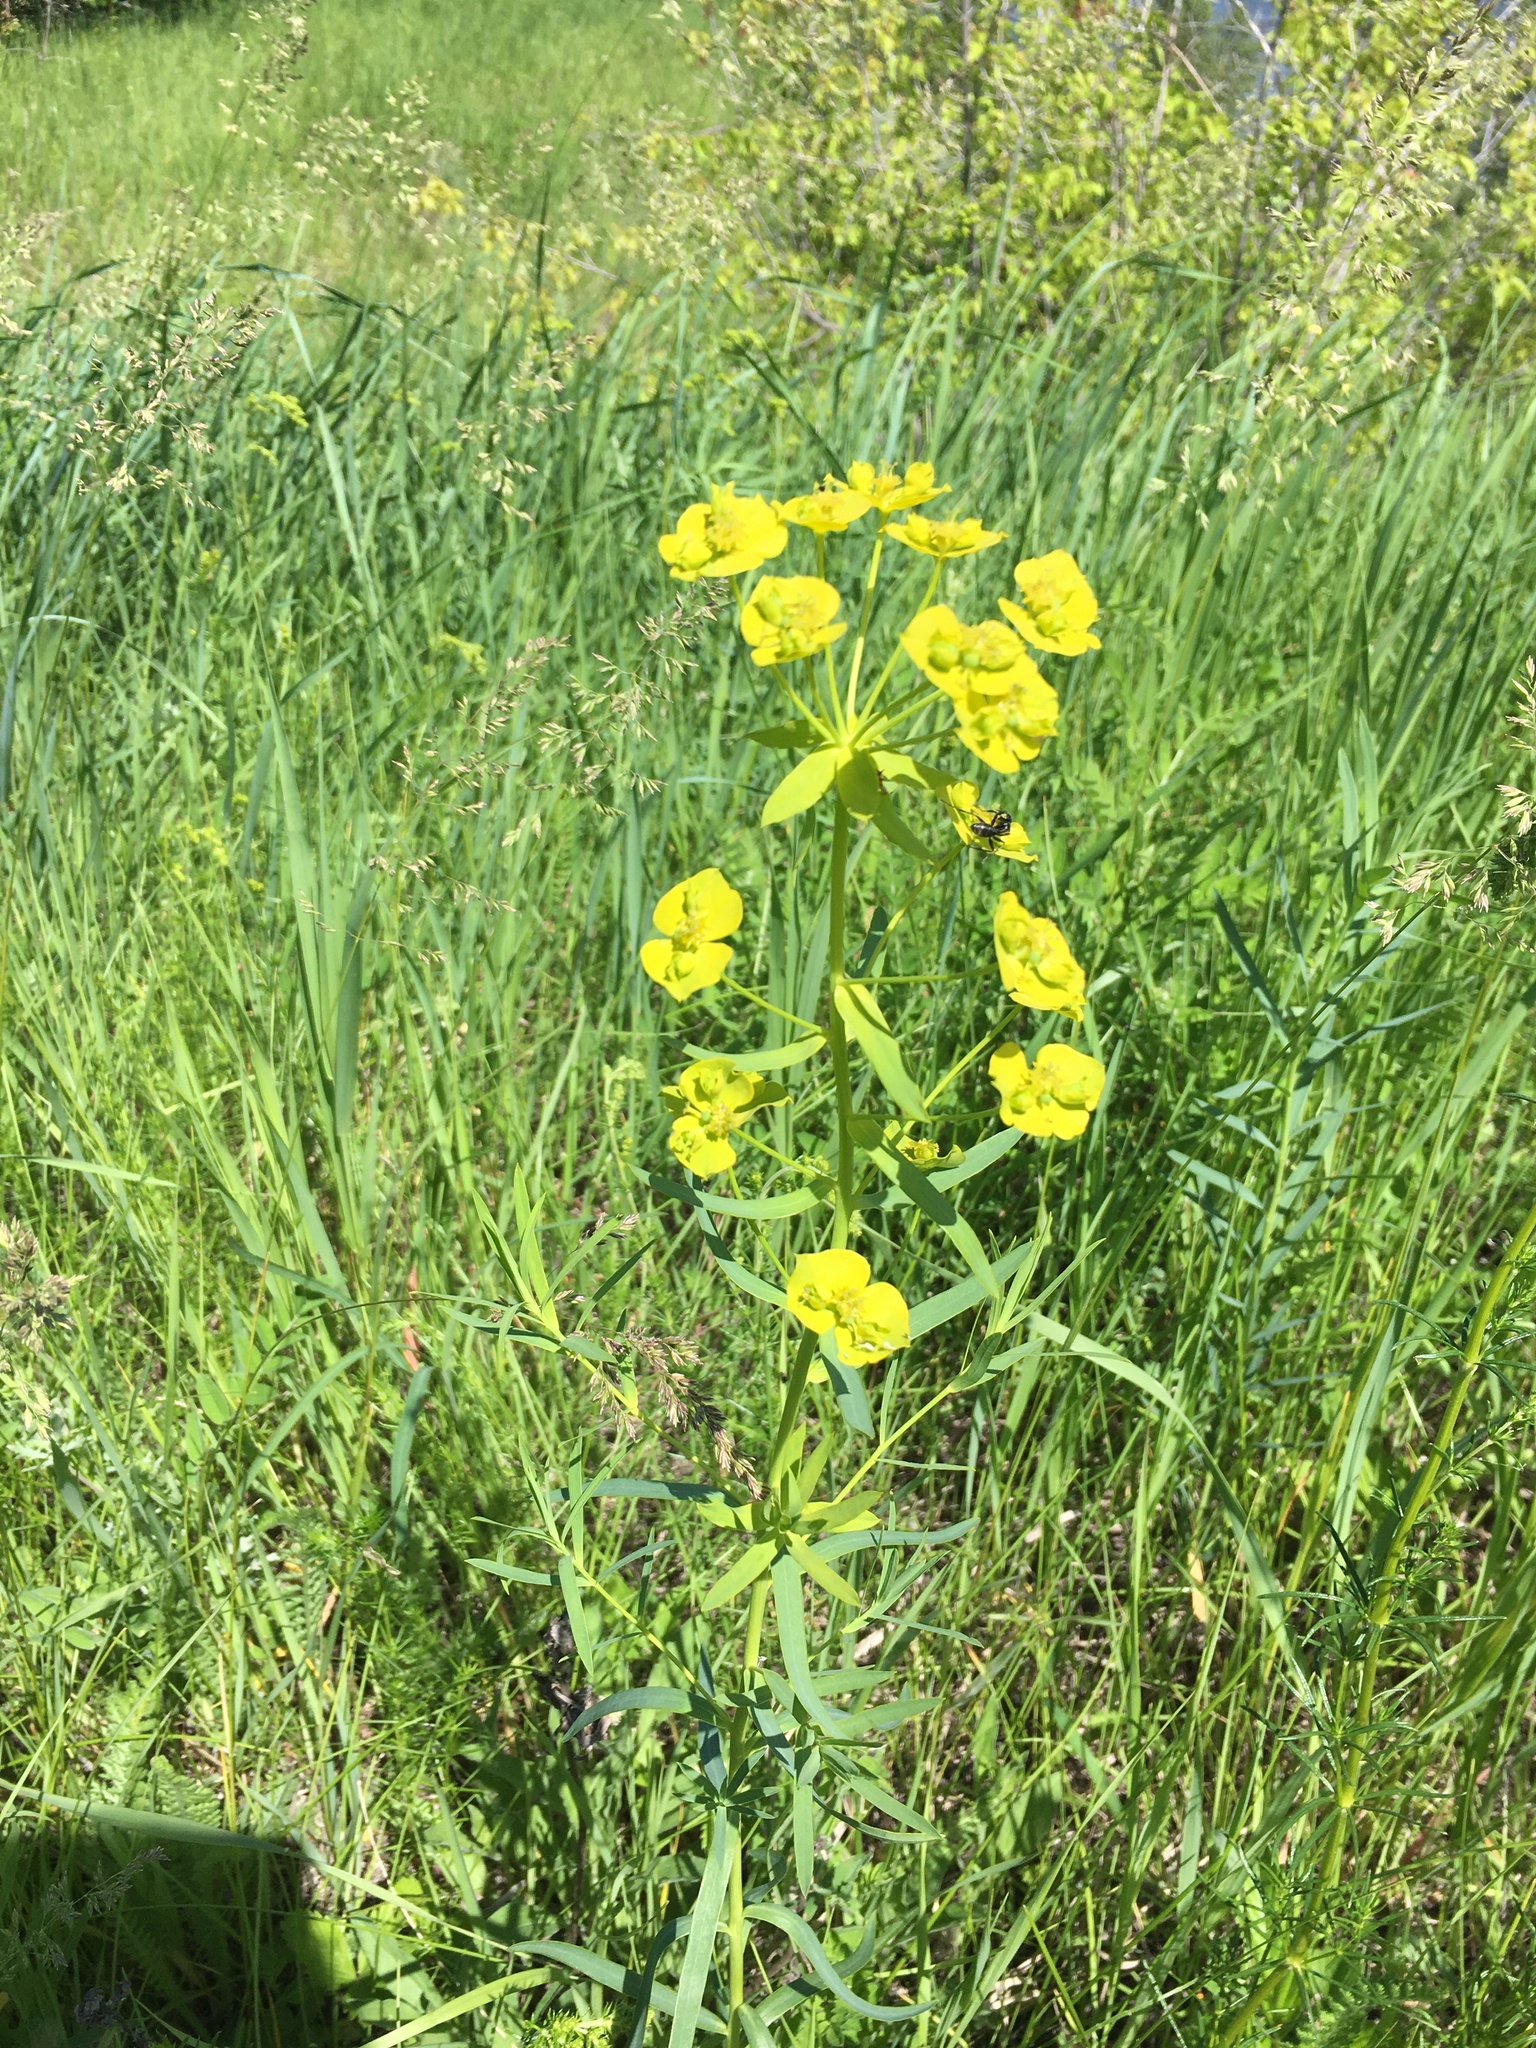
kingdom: Plantae
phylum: Tracheophyta
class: Magnoliopsida
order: Malpighiales
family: Euphorbiaceae
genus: Euphorbia
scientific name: Euphorbia virgata
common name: Leafy spurge
